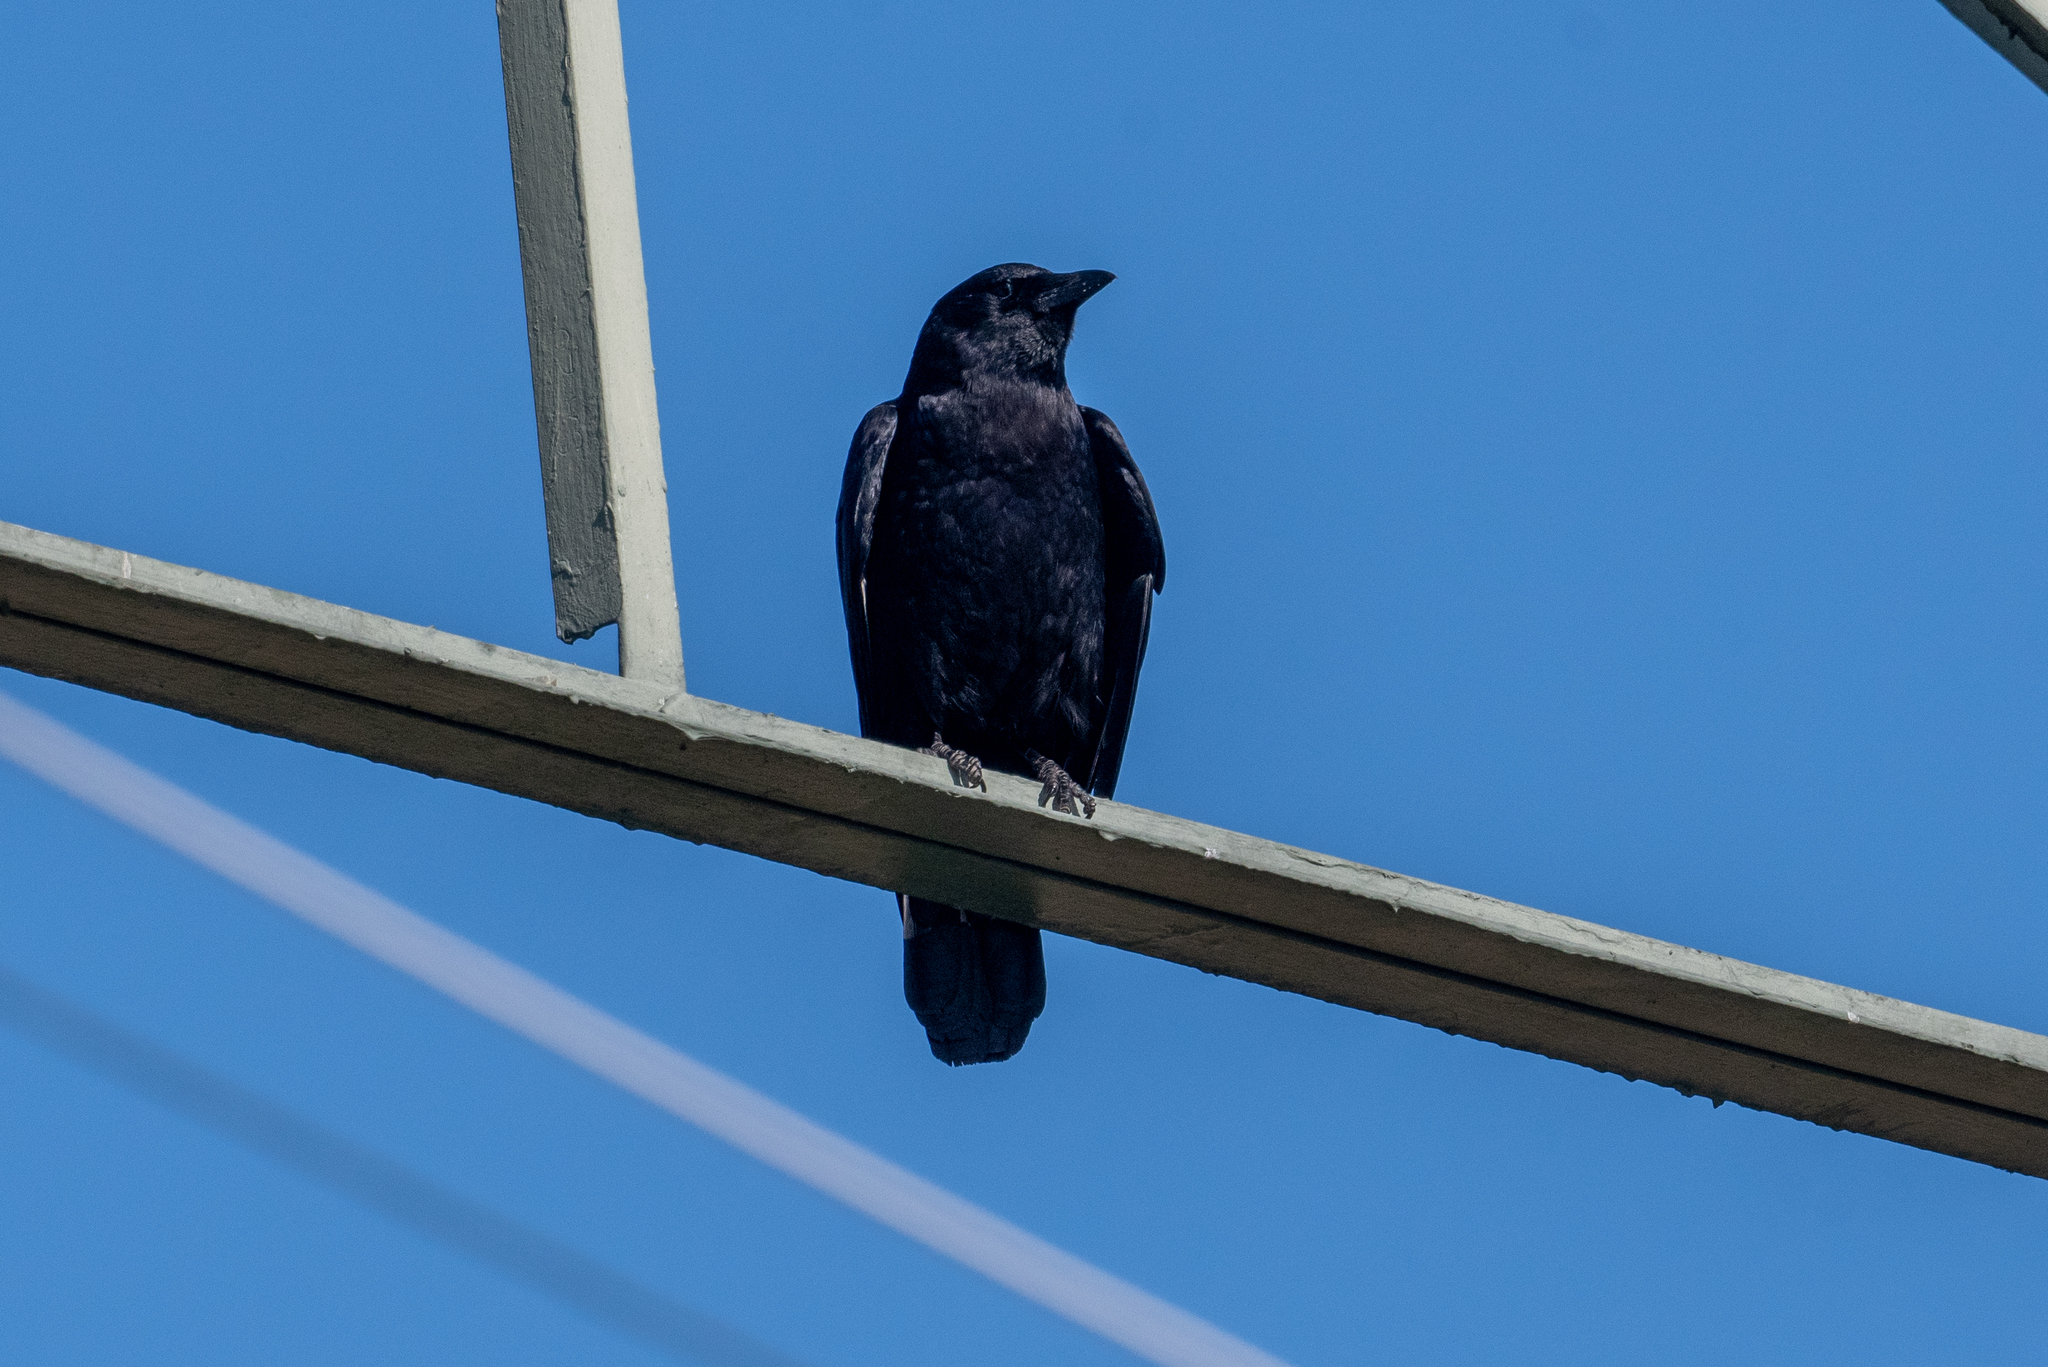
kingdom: Animalia
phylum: Chordata
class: Aves
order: Passeriformes
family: Corvidae
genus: Corvus
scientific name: Corvus brachyrhynchos
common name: American crow
